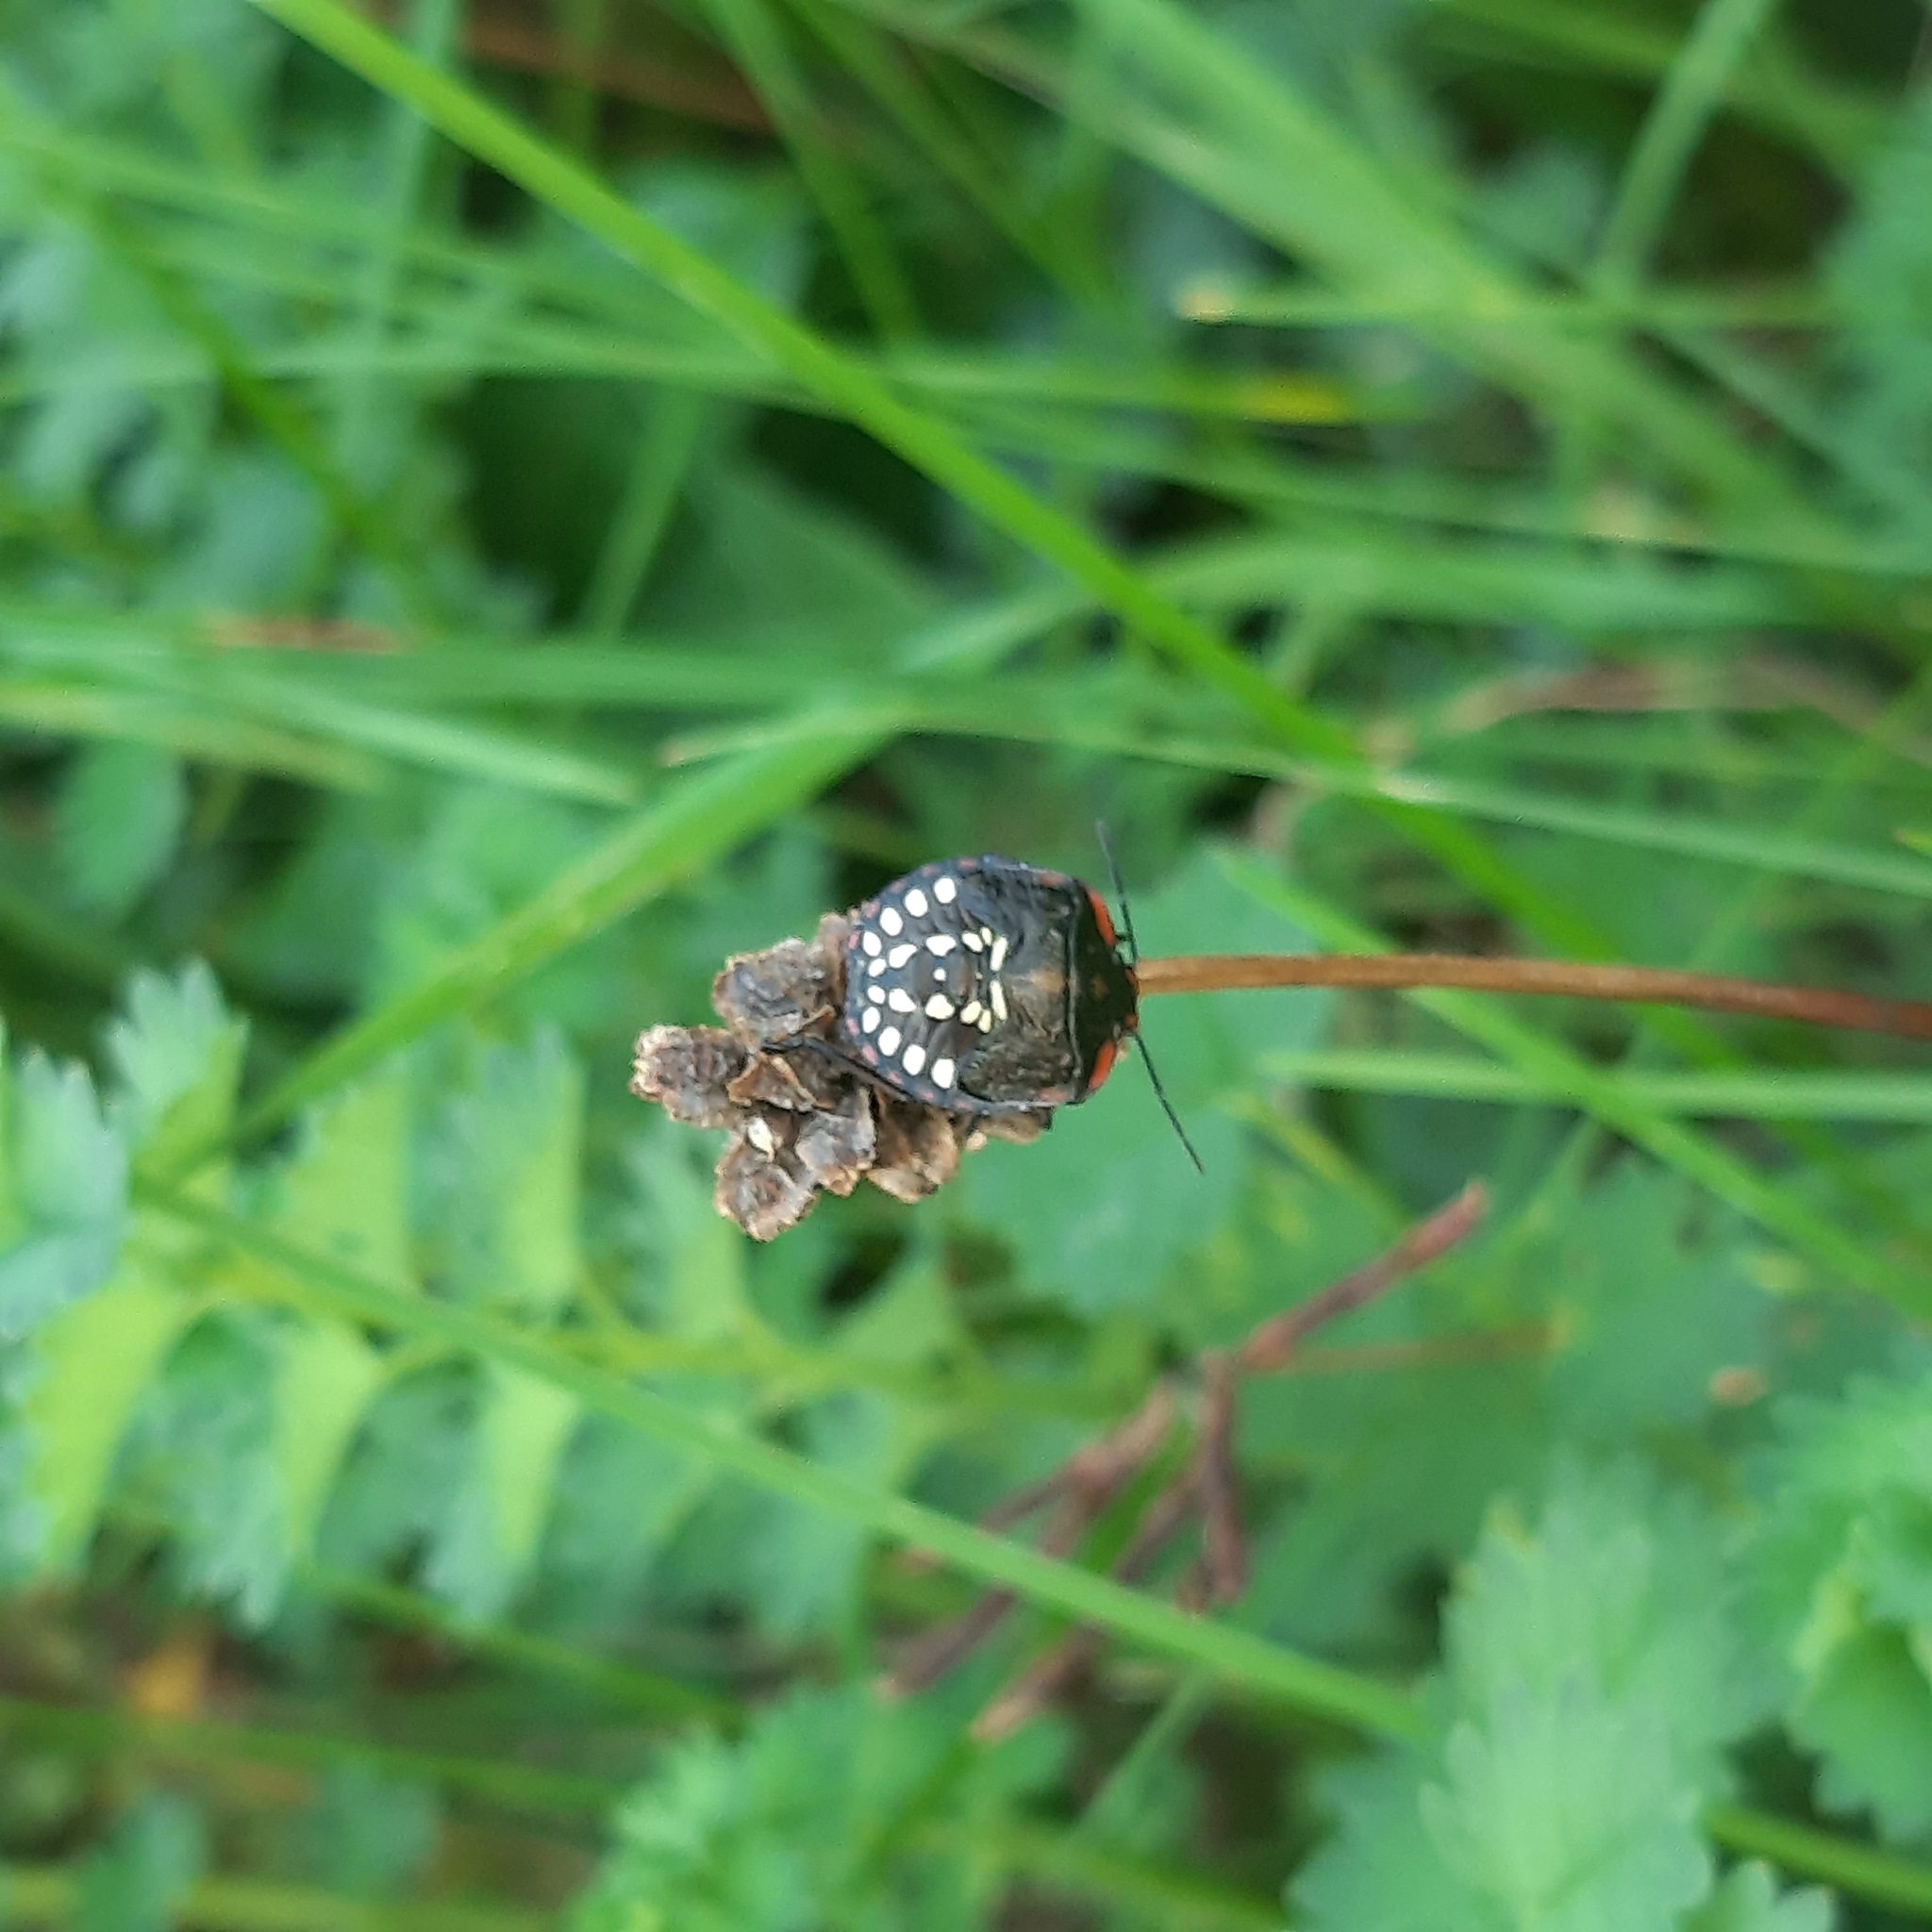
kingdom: Animalia
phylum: Arthropoda
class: Insecta
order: Hemiptera
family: Pentatomidae
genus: Nezara
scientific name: Nezara viridula
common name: Southern green stink bug
